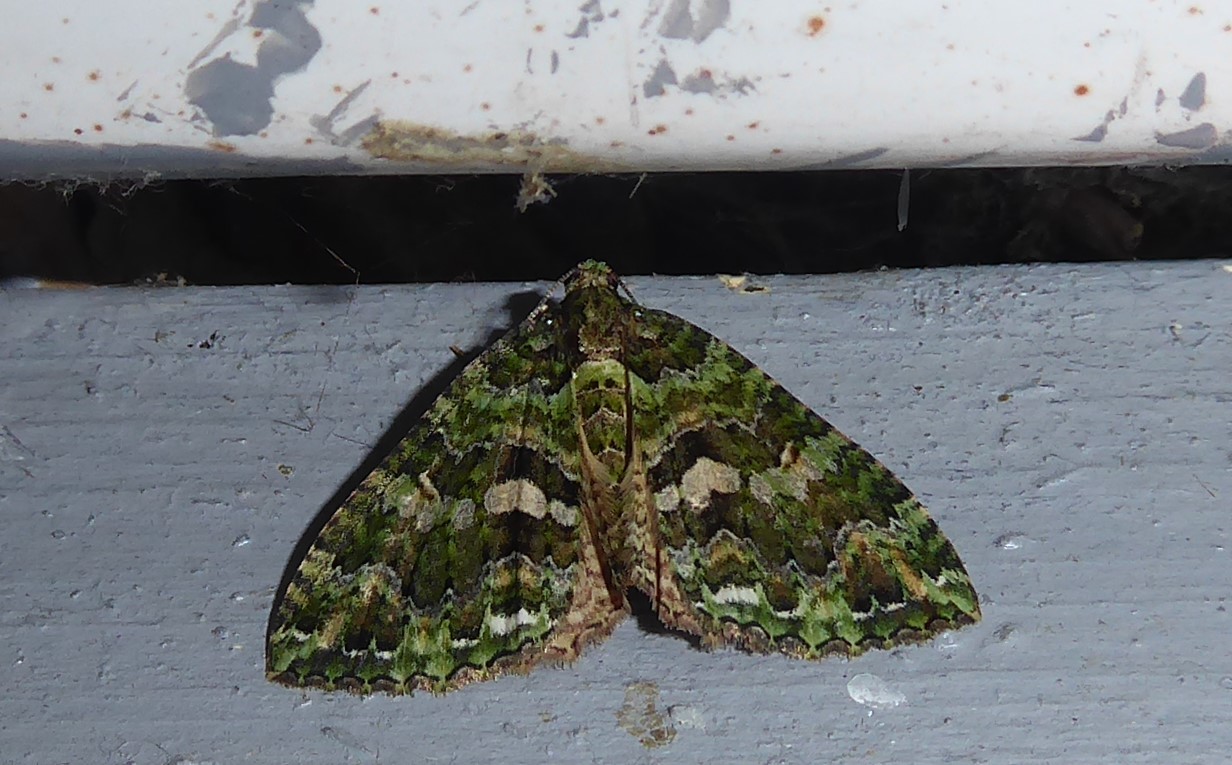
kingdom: Animalia
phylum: Arthropoda
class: Insecta
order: Lepidoptera
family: Geometridae
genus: Austrocidaria
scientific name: Austrocidaria similata
